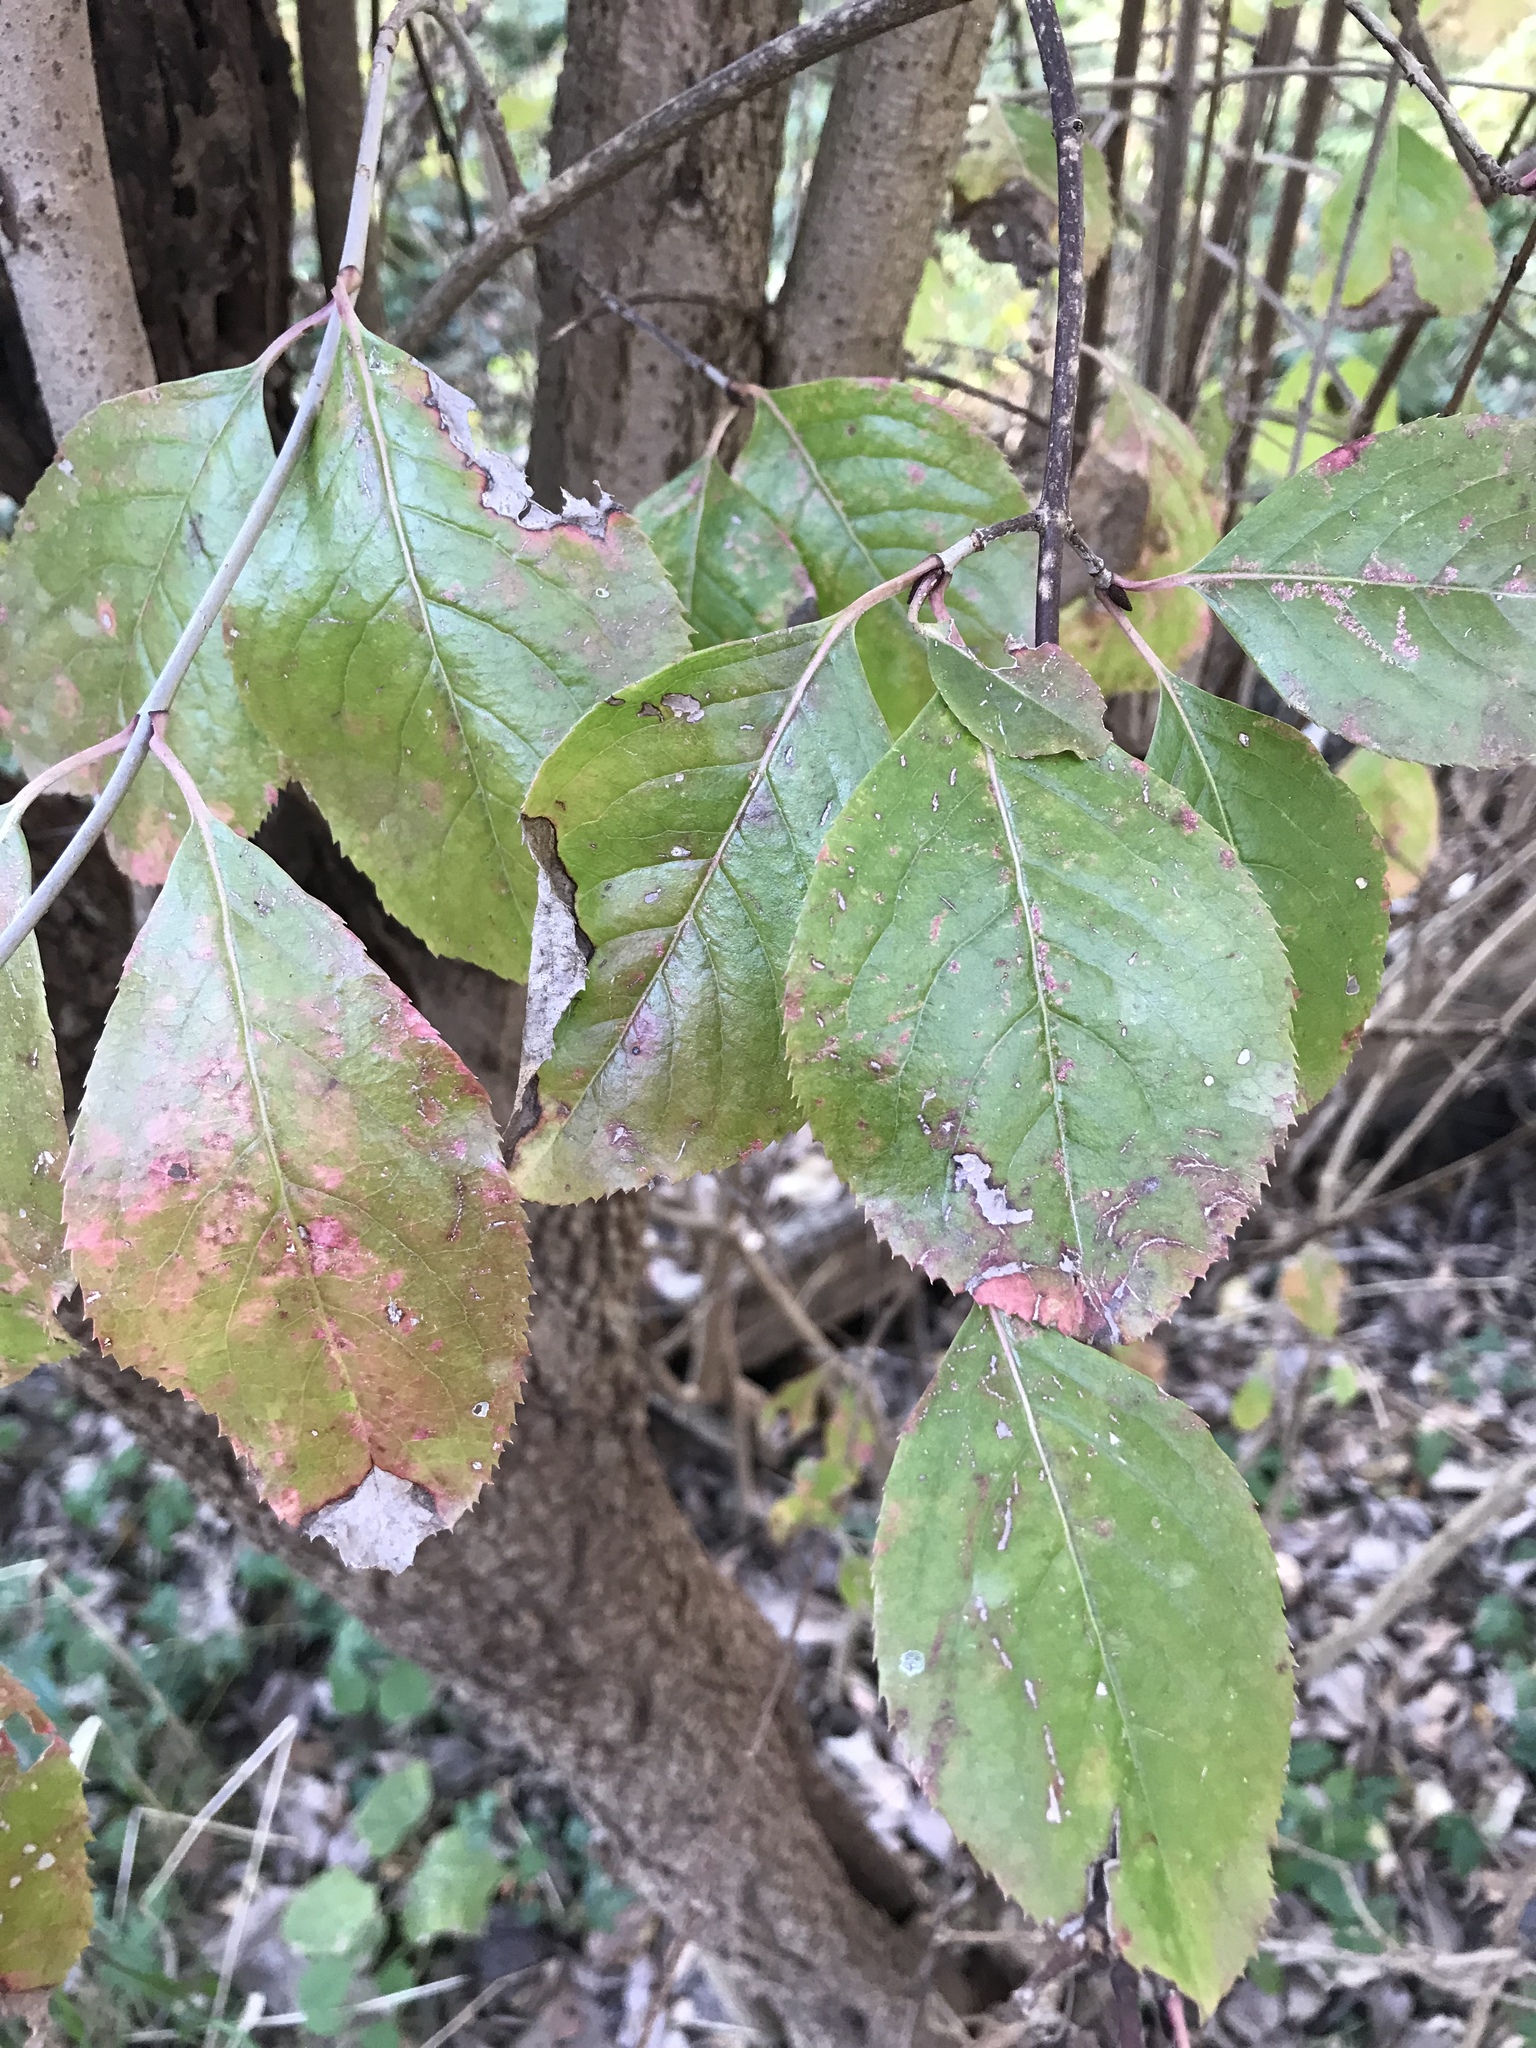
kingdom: Plantae
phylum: Tracheophyta
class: Magnoliopsida
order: Dipsacales
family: Viburnaceae
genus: Viburnum
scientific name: Viburnum rufidulum
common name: Blue haw
